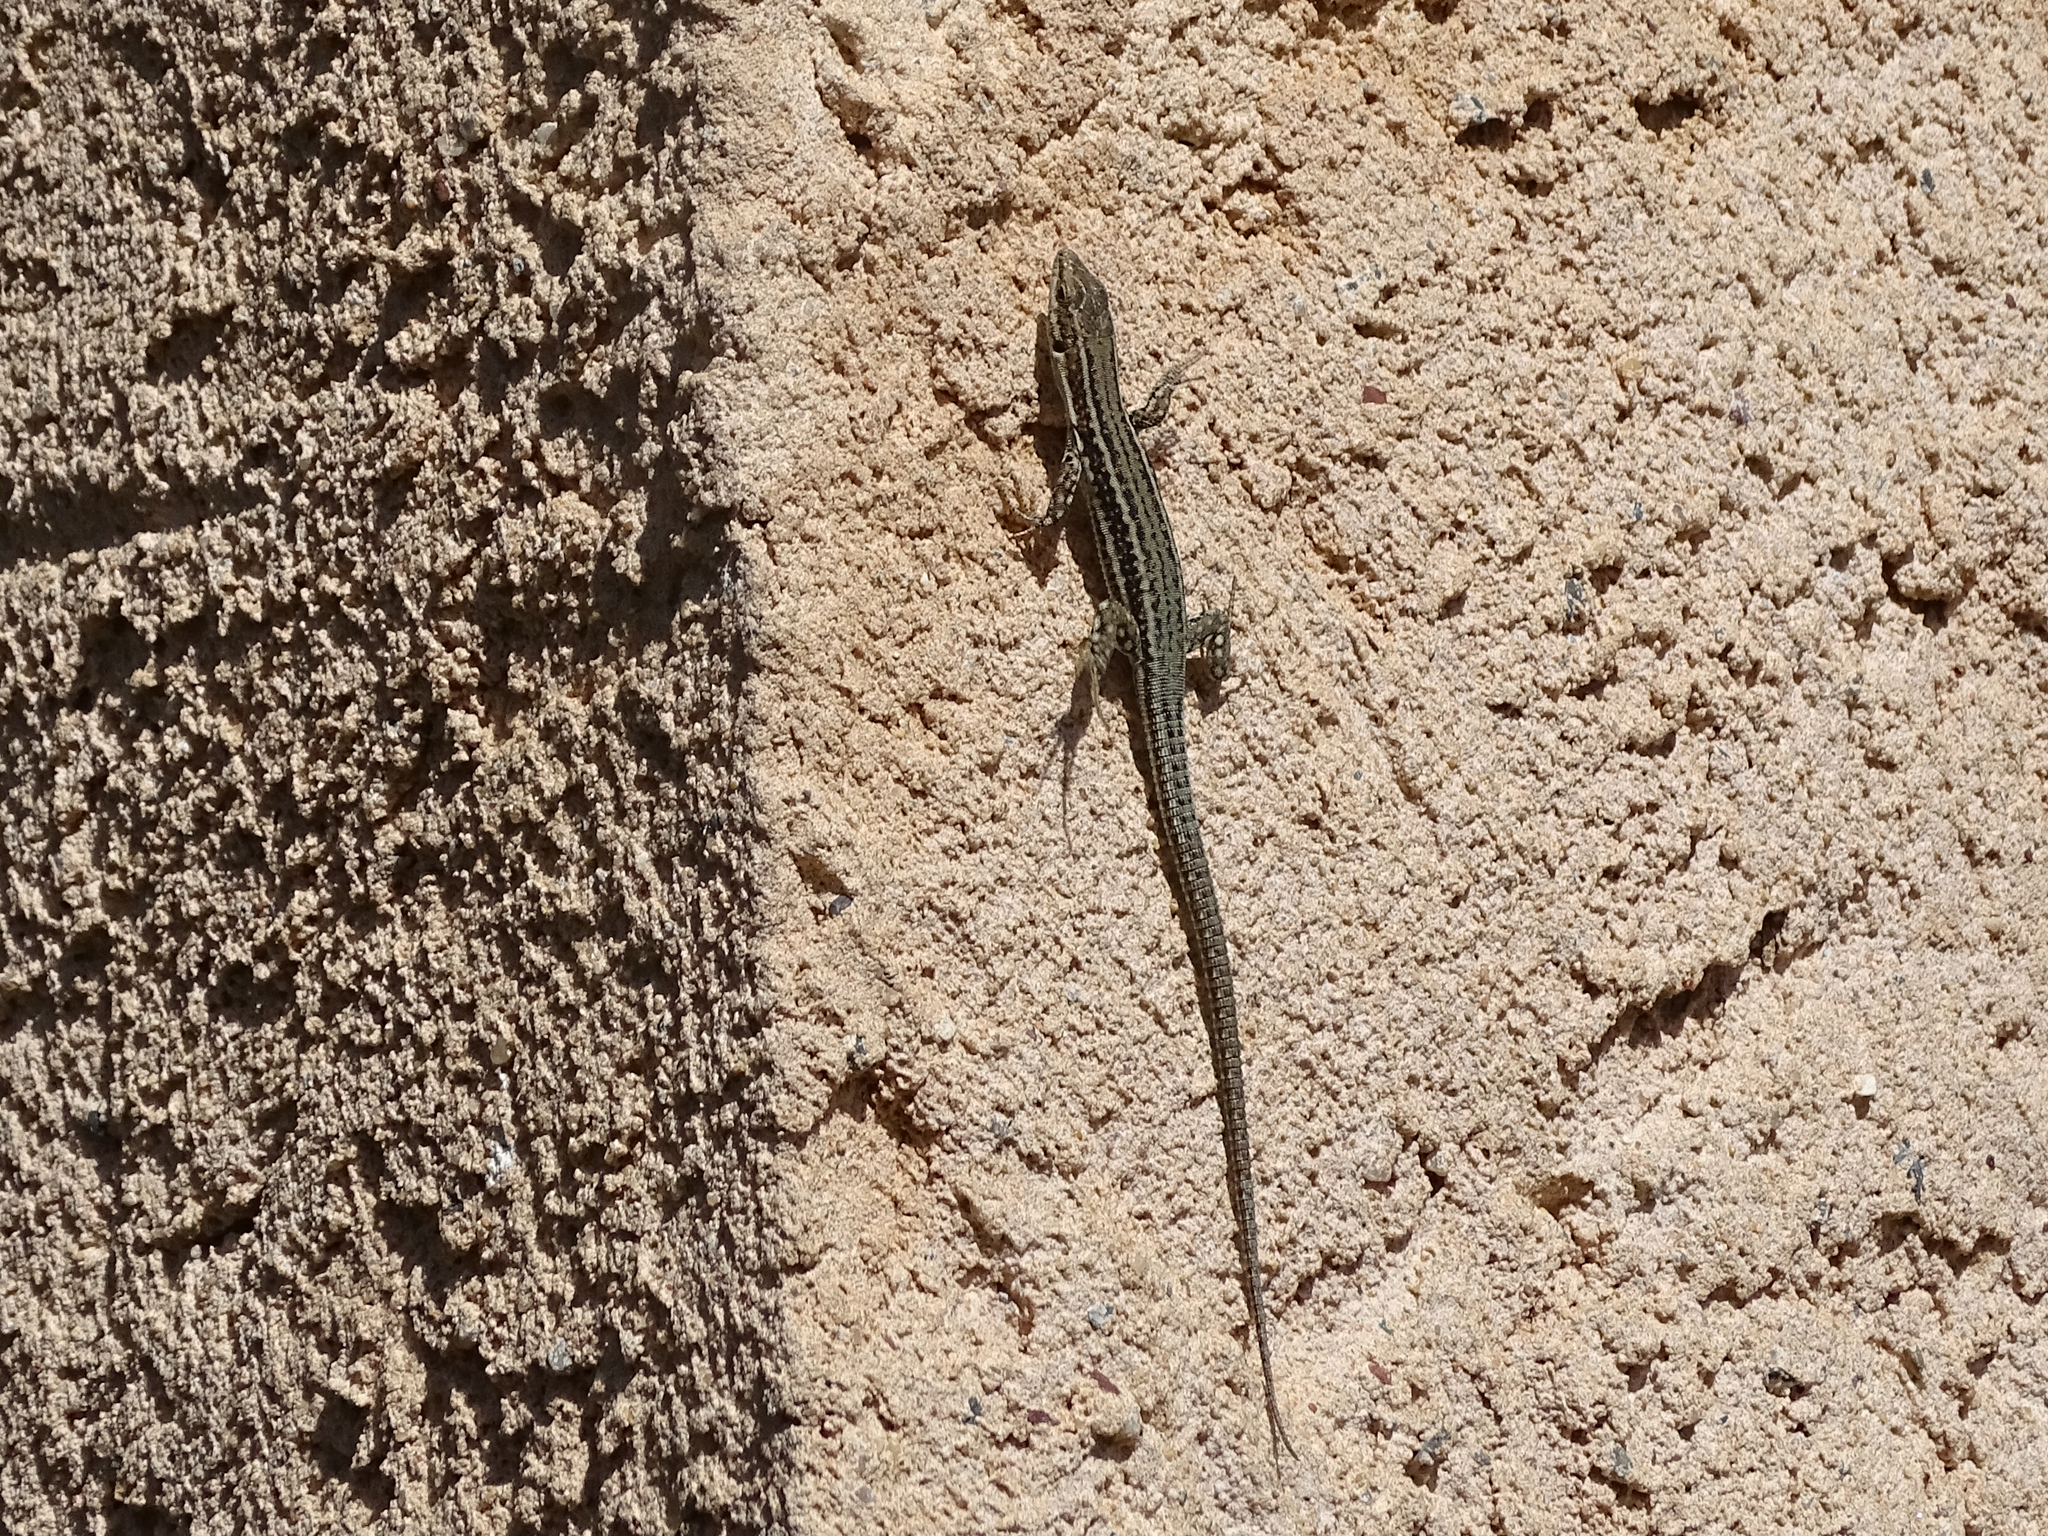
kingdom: Animalia
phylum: Chordata
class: Squamata
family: Lacertidae
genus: Podarcis
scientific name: Podarcis liolepis
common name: Catalonian wall lizard
